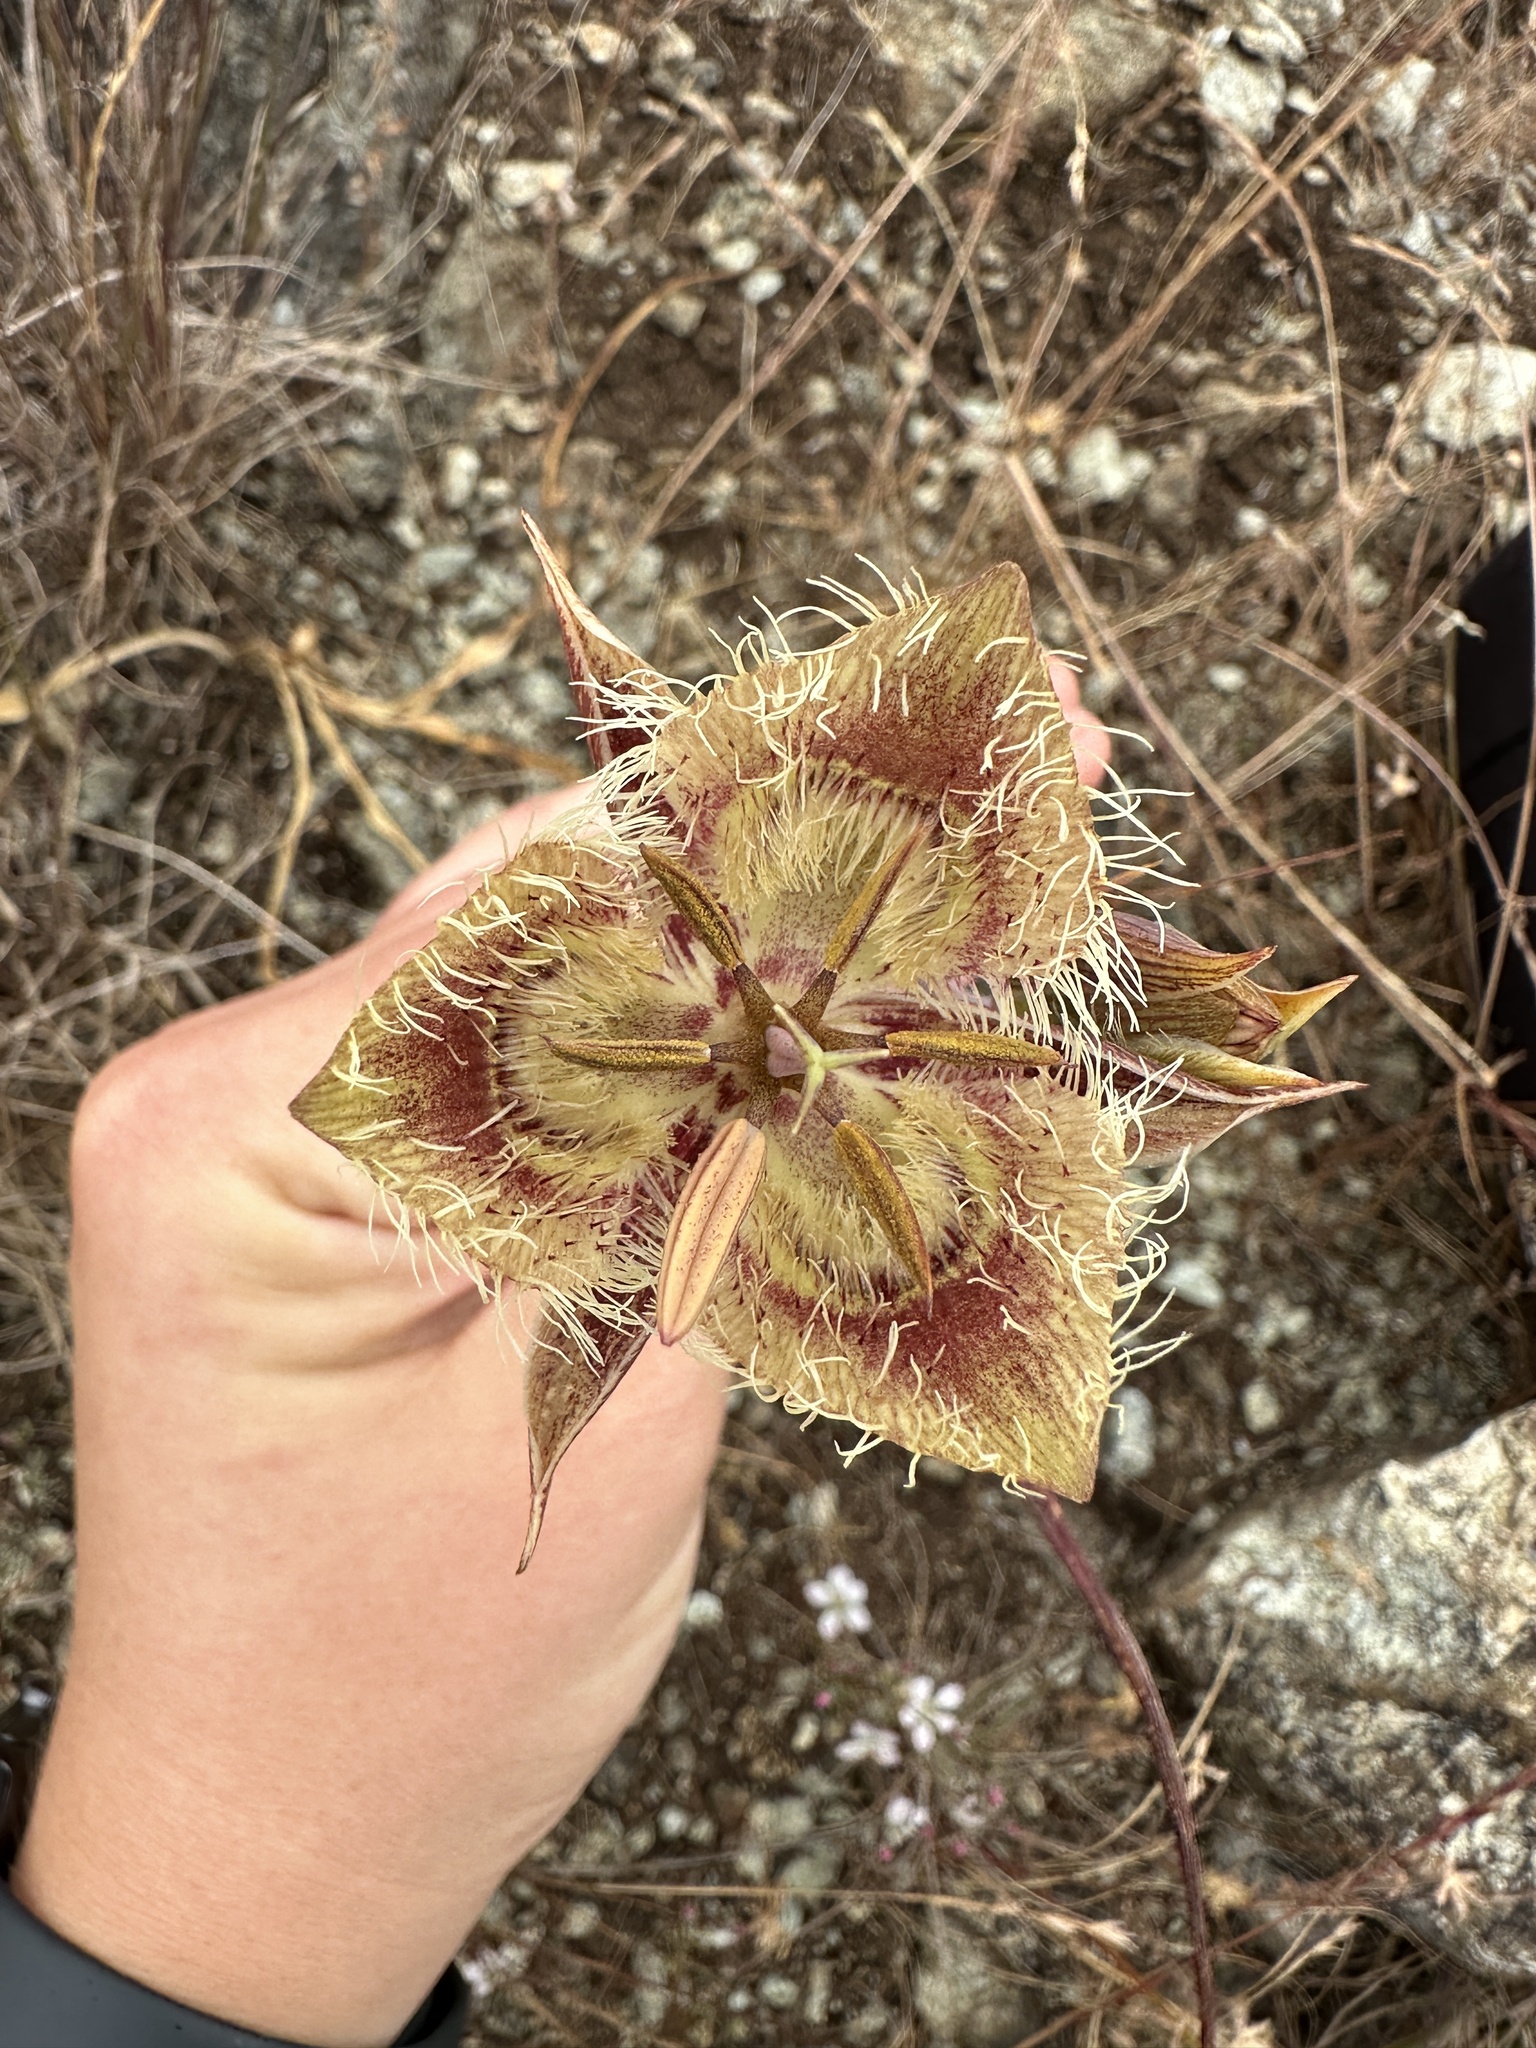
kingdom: Plantae
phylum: Tracheophyta
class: Liliopsida
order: Liliales
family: Liliaceae
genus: Calochortus
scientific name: Calochortus tiburonensis
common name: Tiburon mariposa-lily
